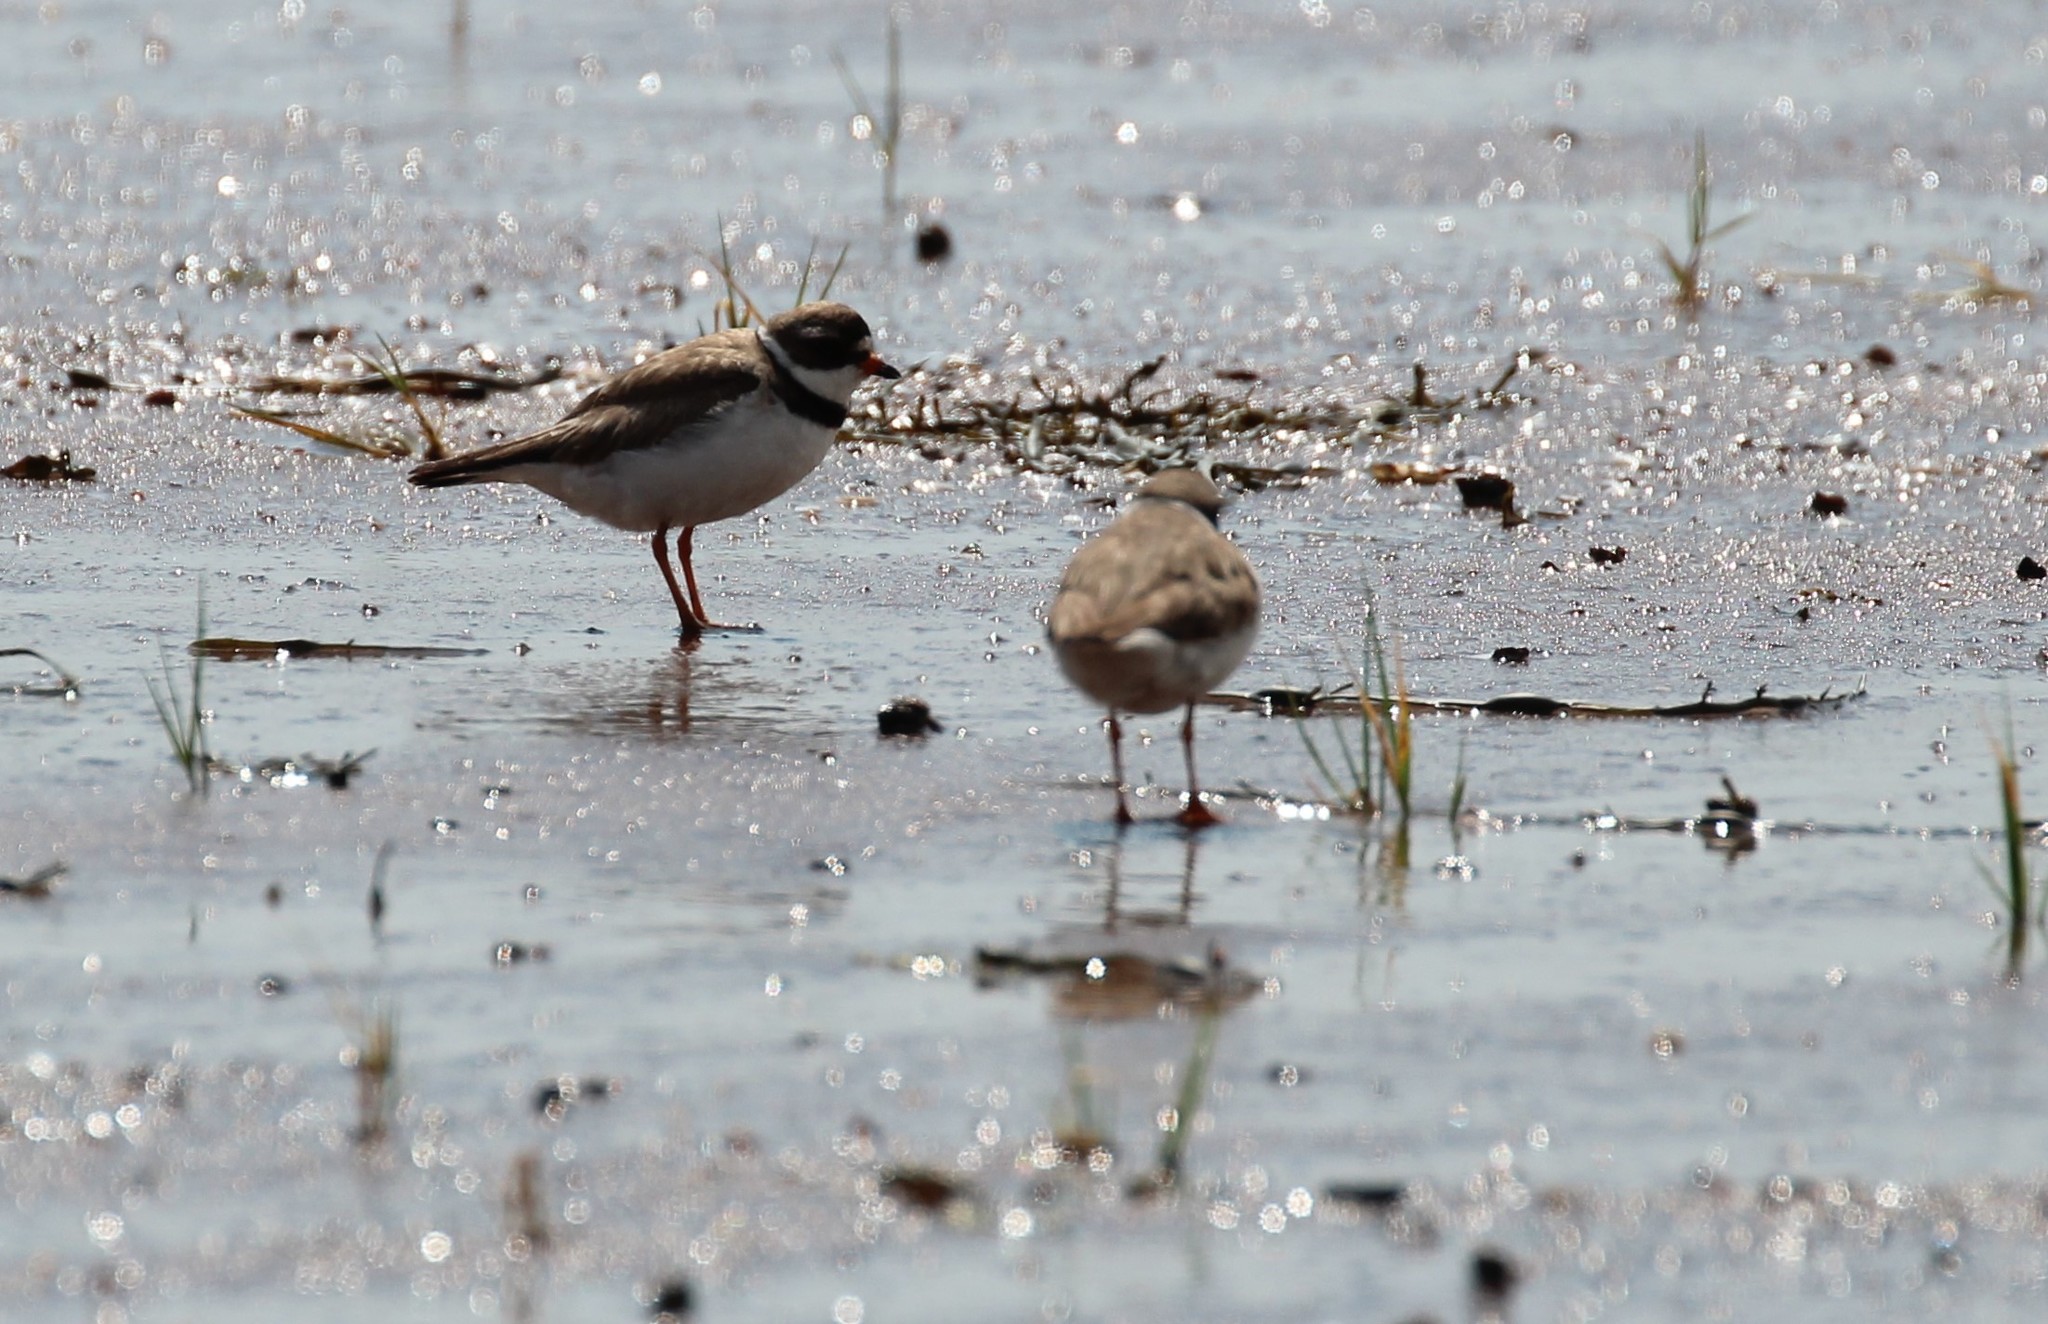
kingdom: Animalia
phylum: Chordata
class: Aves
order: Charadriiformes
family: Charadriidae
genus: Charadrius
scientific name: Charadrius semipalmatus
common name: Semipalmated plover
